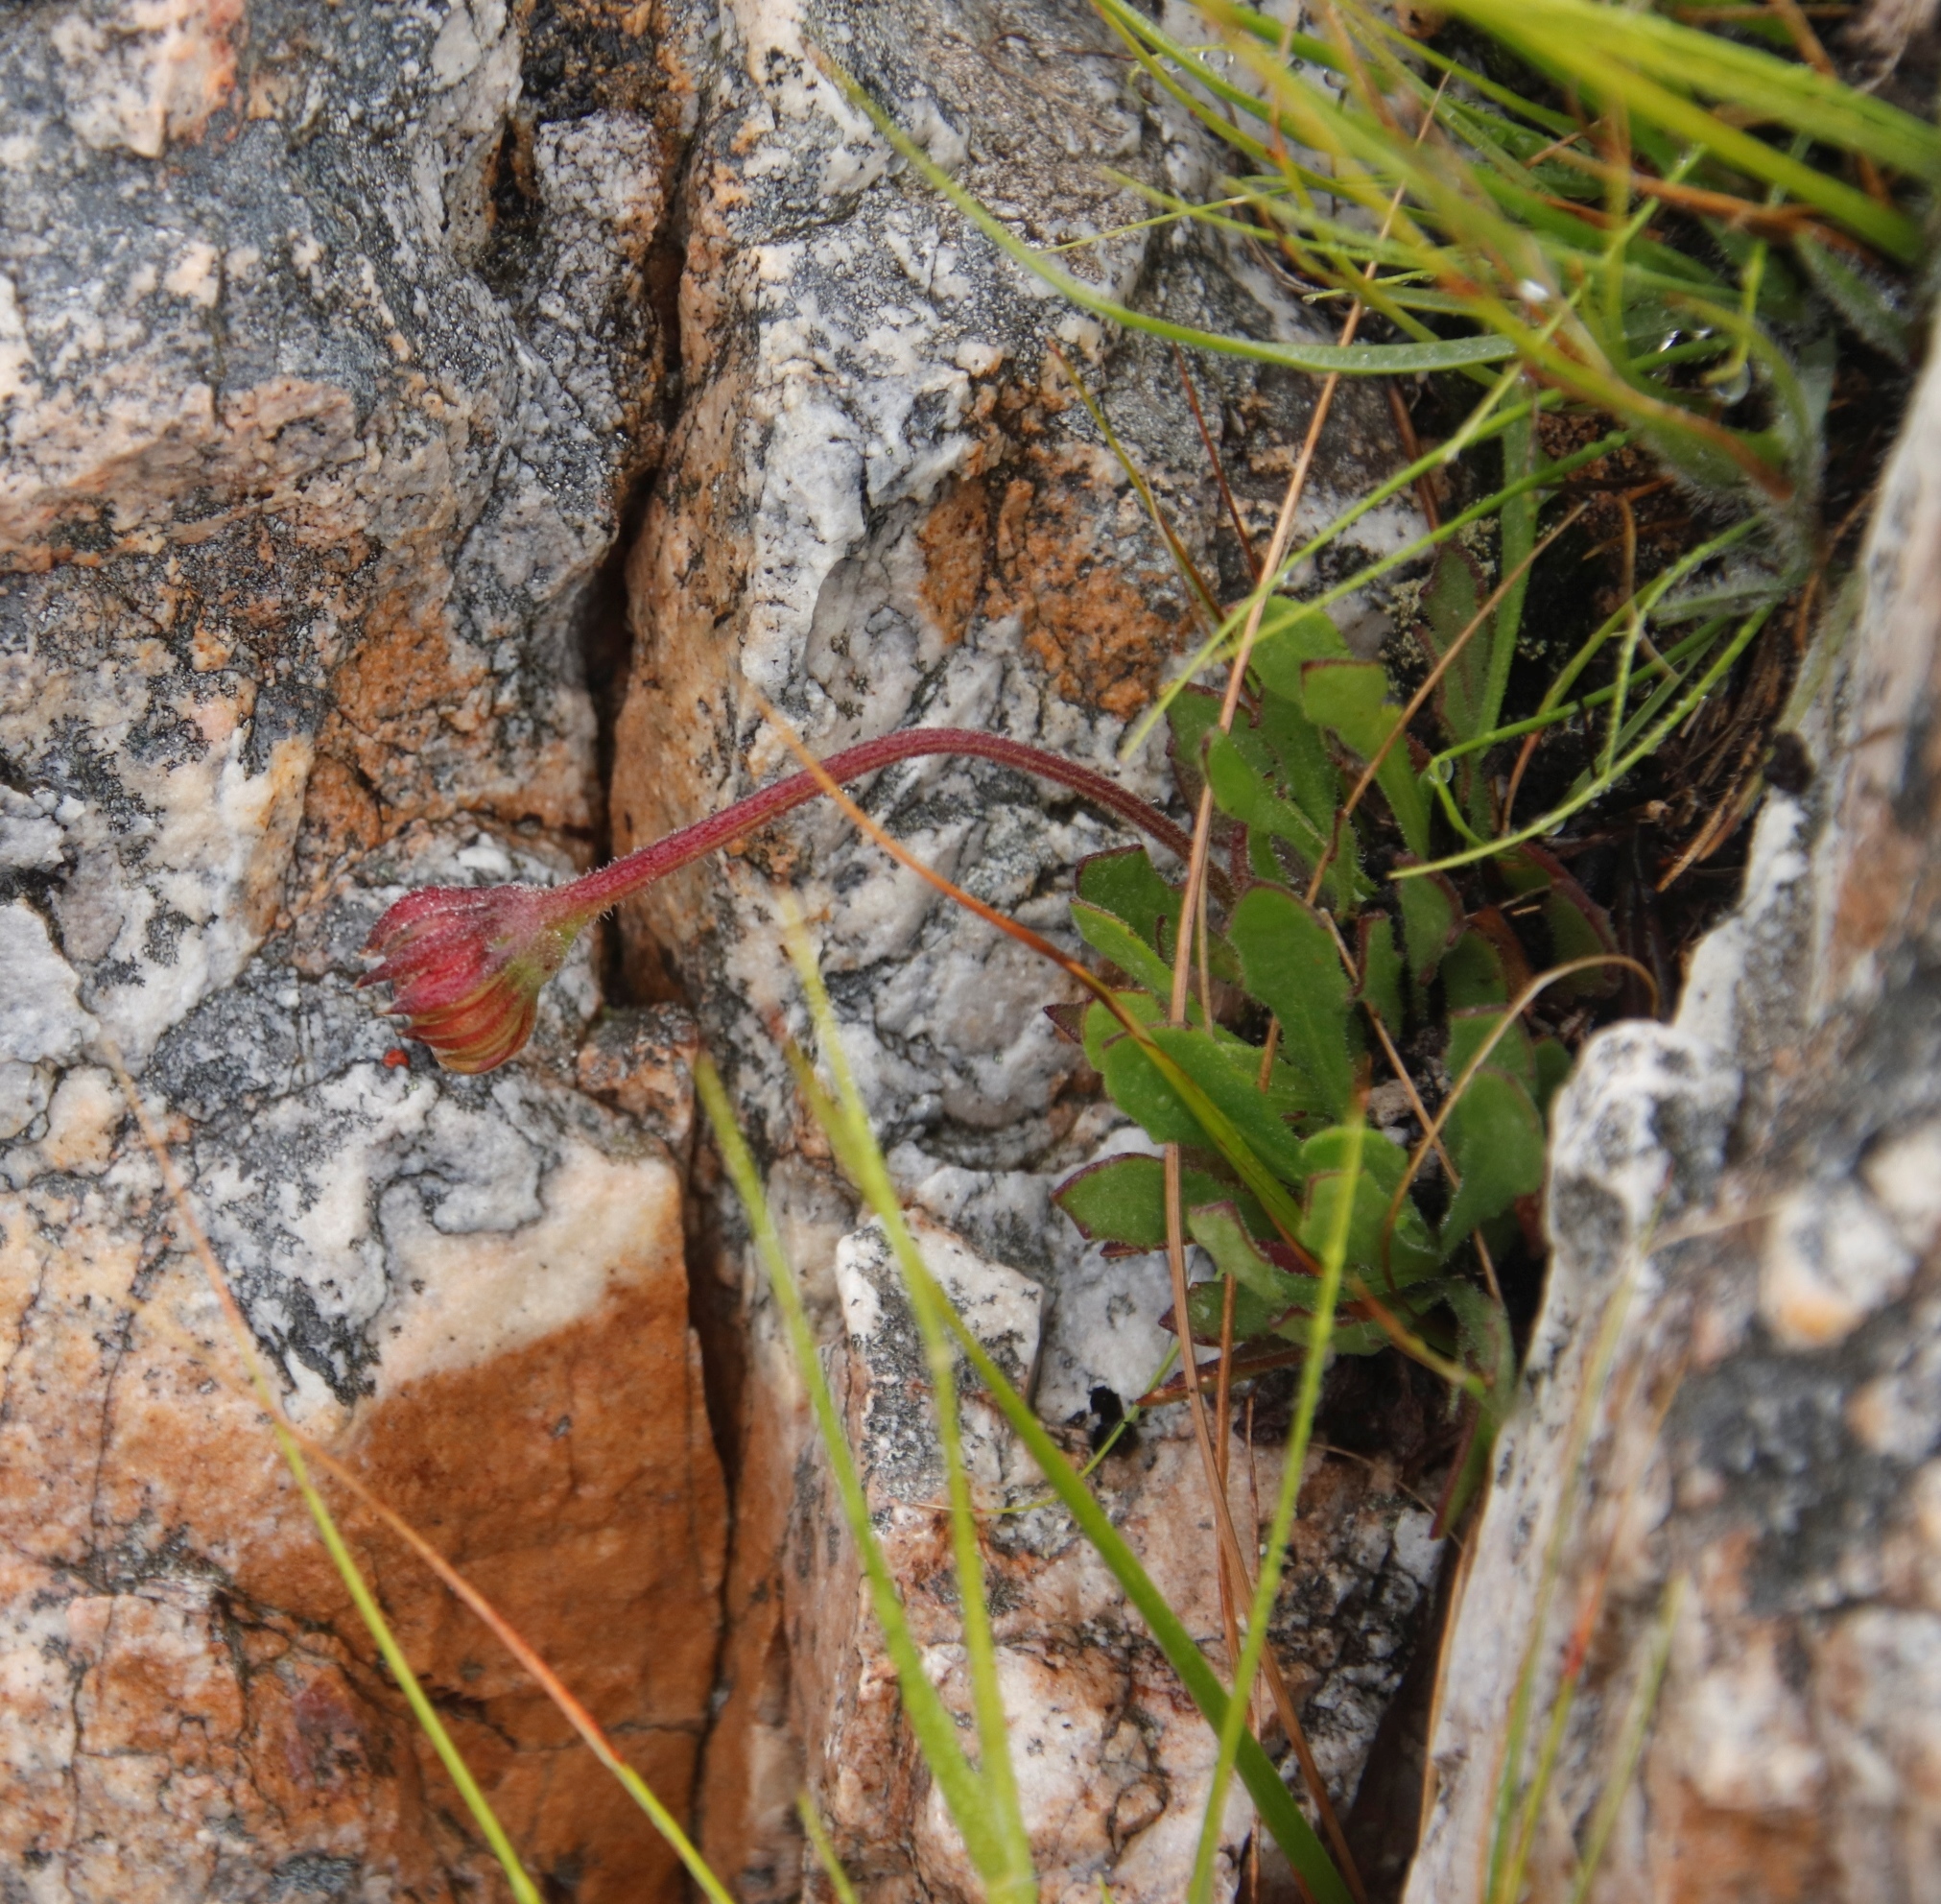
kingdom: Plantae
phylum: Tracheophyta
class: Magnoliopsida
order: Asterales
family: Asteraceae
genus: Dimorphotheca
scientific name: Dimorphotheca montana
